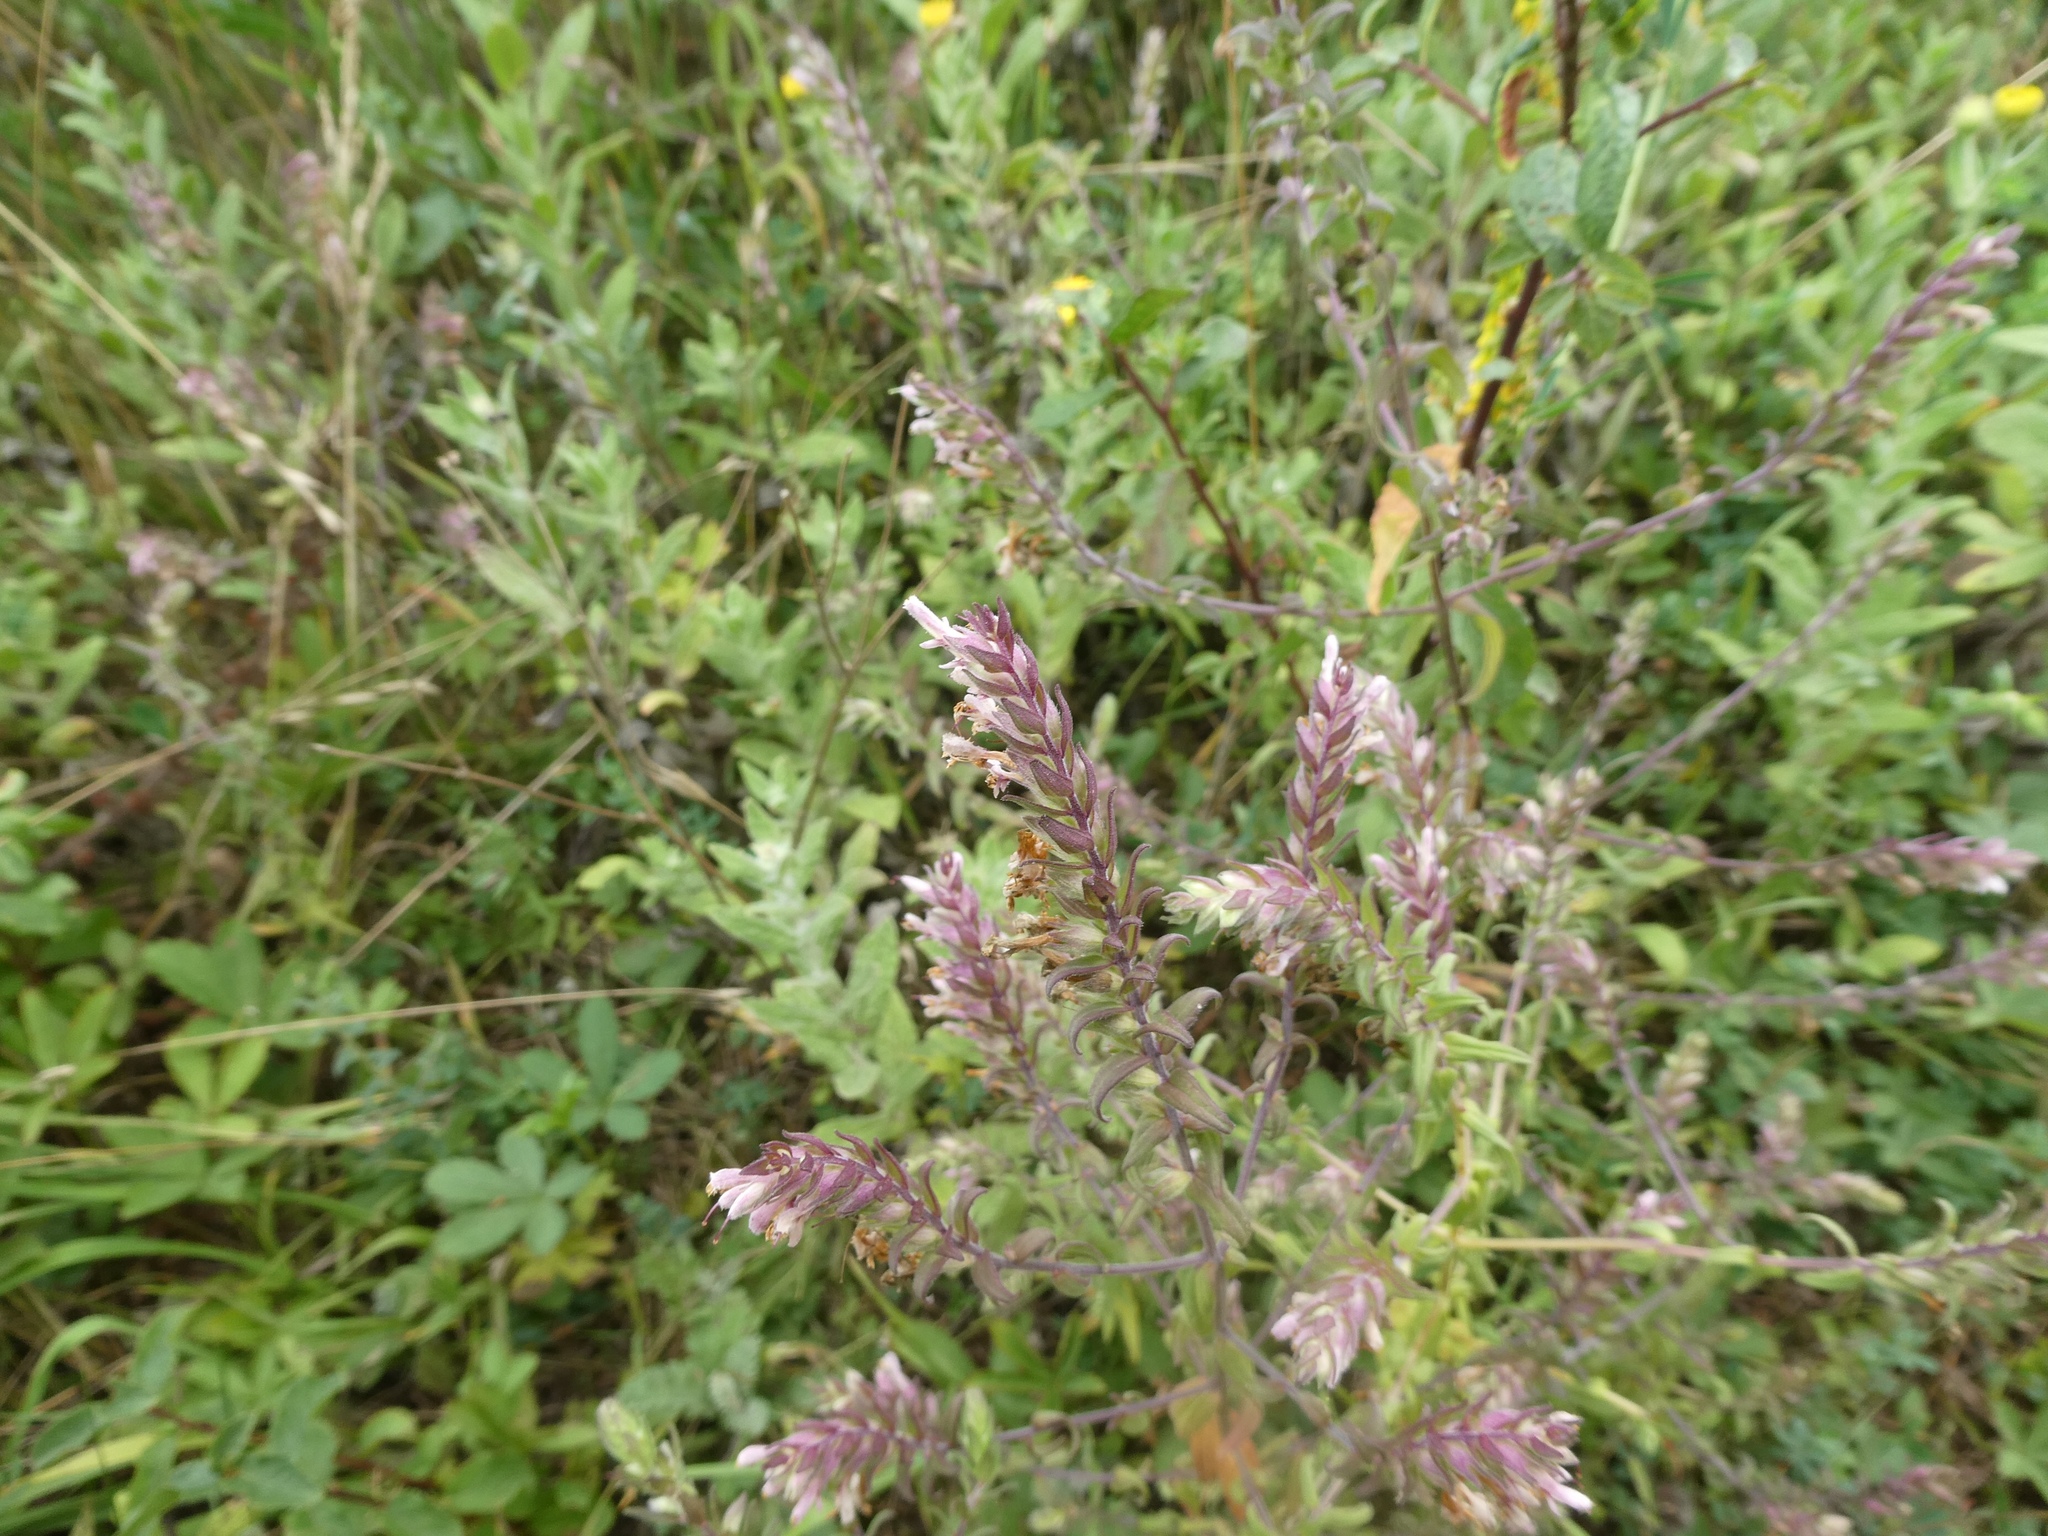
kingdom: Plantae
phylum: Tracheophyta
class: Magnoliopsida
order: Lamiales
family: Orobanchaceae
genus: Odontites
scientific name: Odontites vernus
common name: Red bartsia
